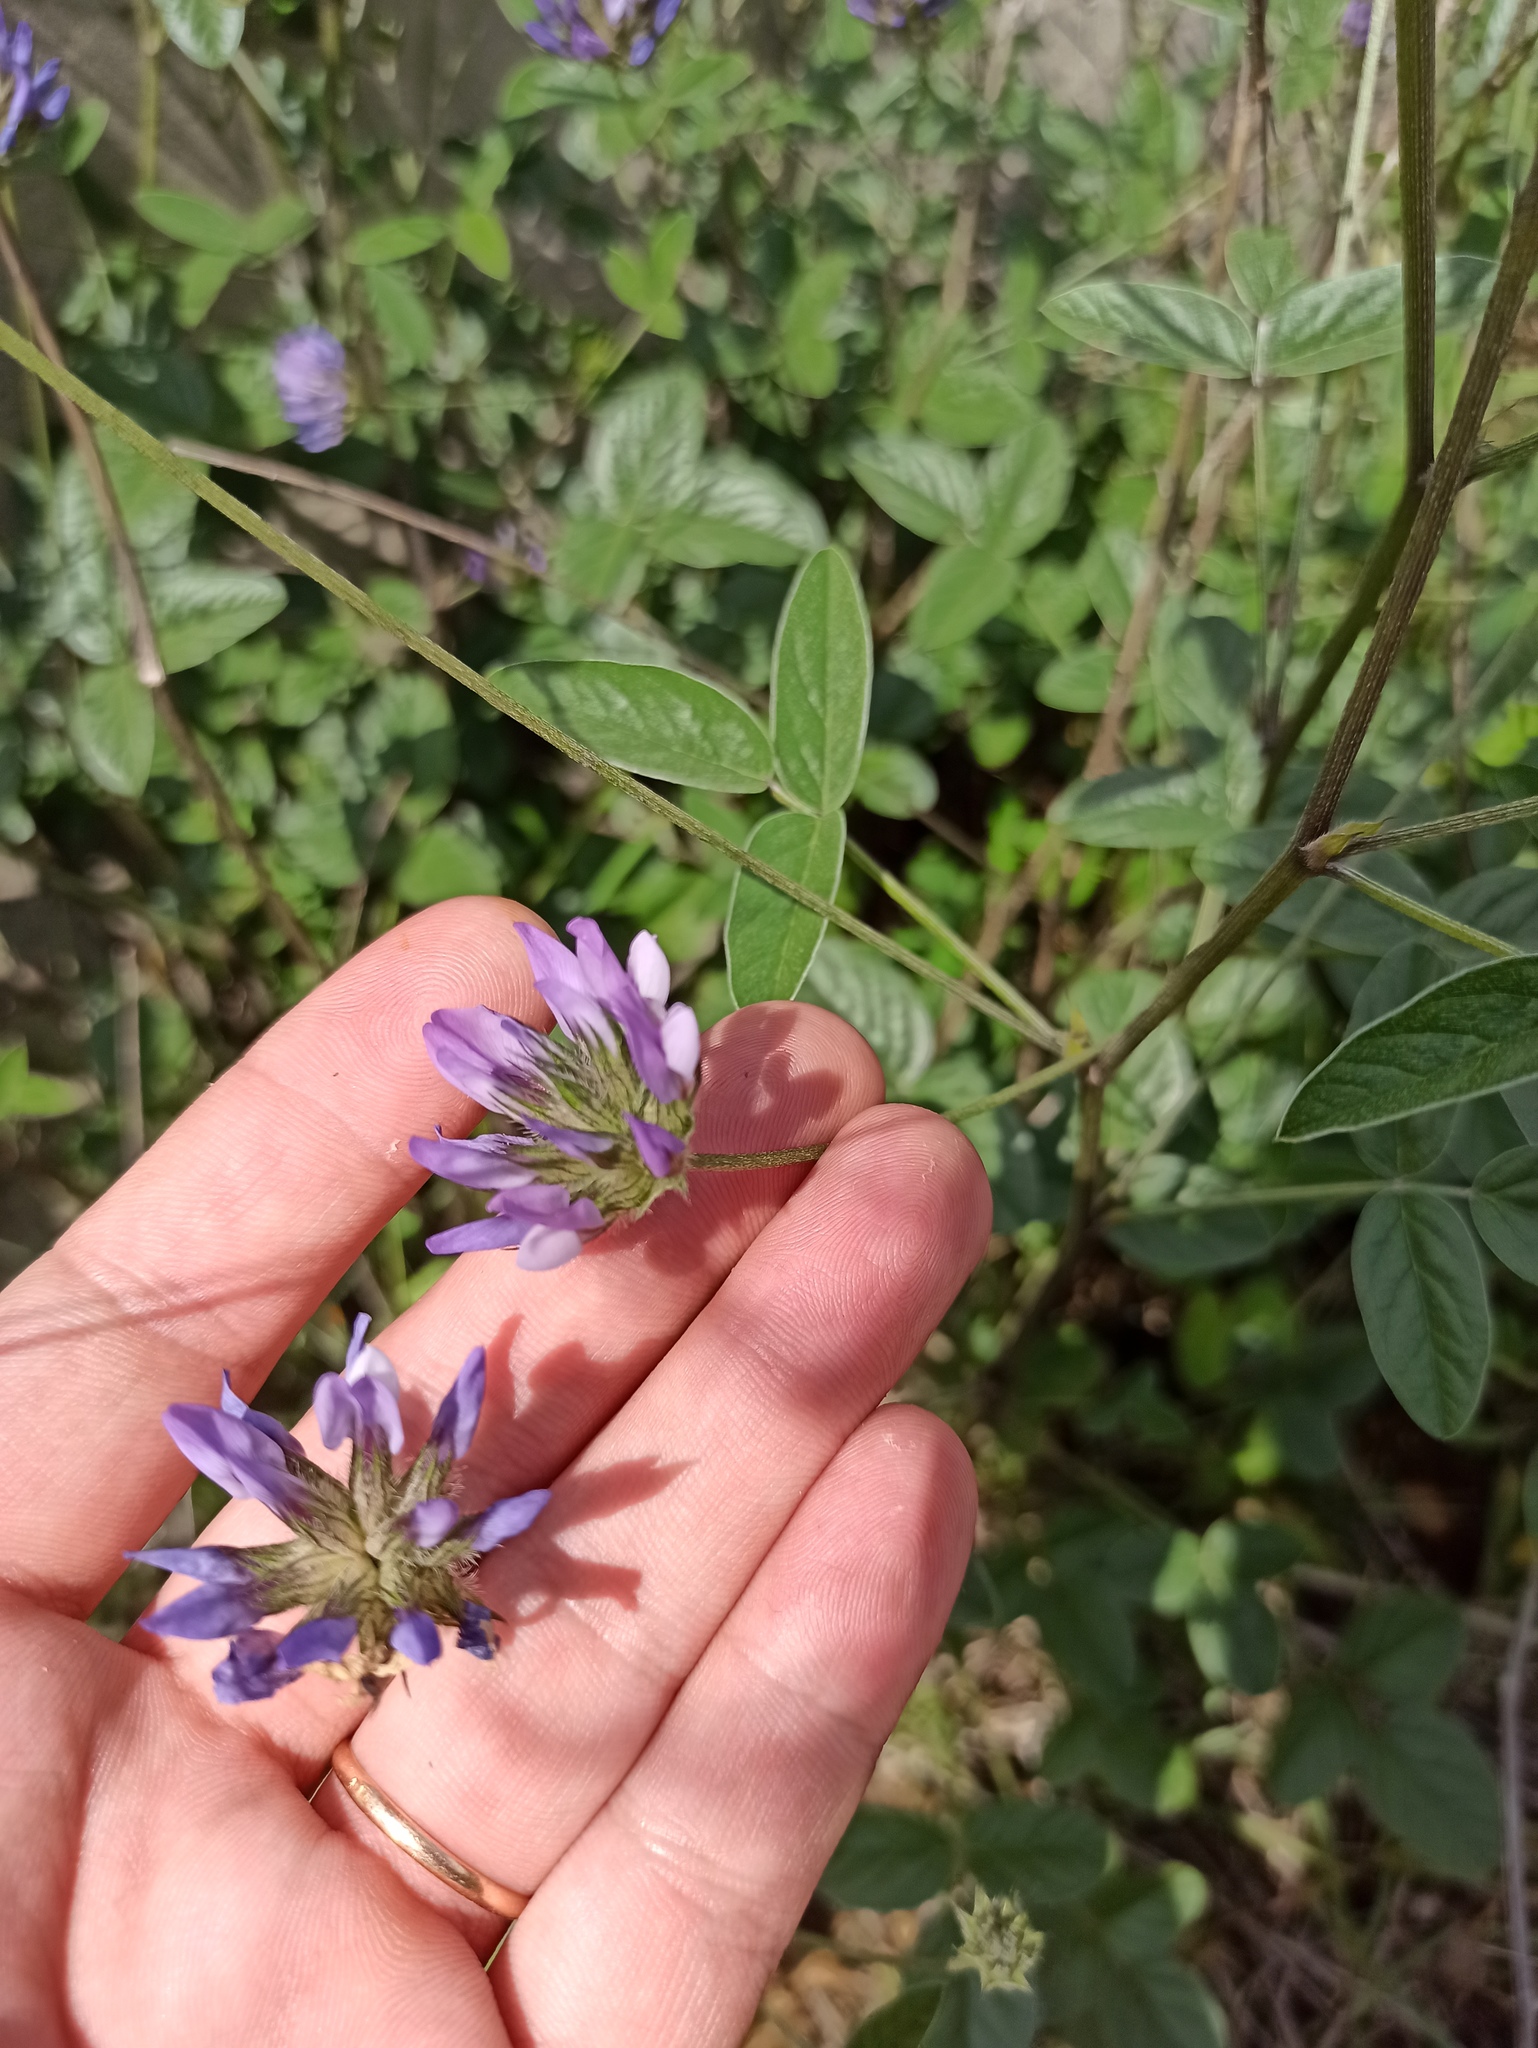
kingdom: Plantae
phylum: Tracheophyta
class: Magnoliopsida
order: Fabales
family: Fabaceae
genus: Bituminaria
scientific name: Bituminaria bituminosa
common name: Arabian pea
